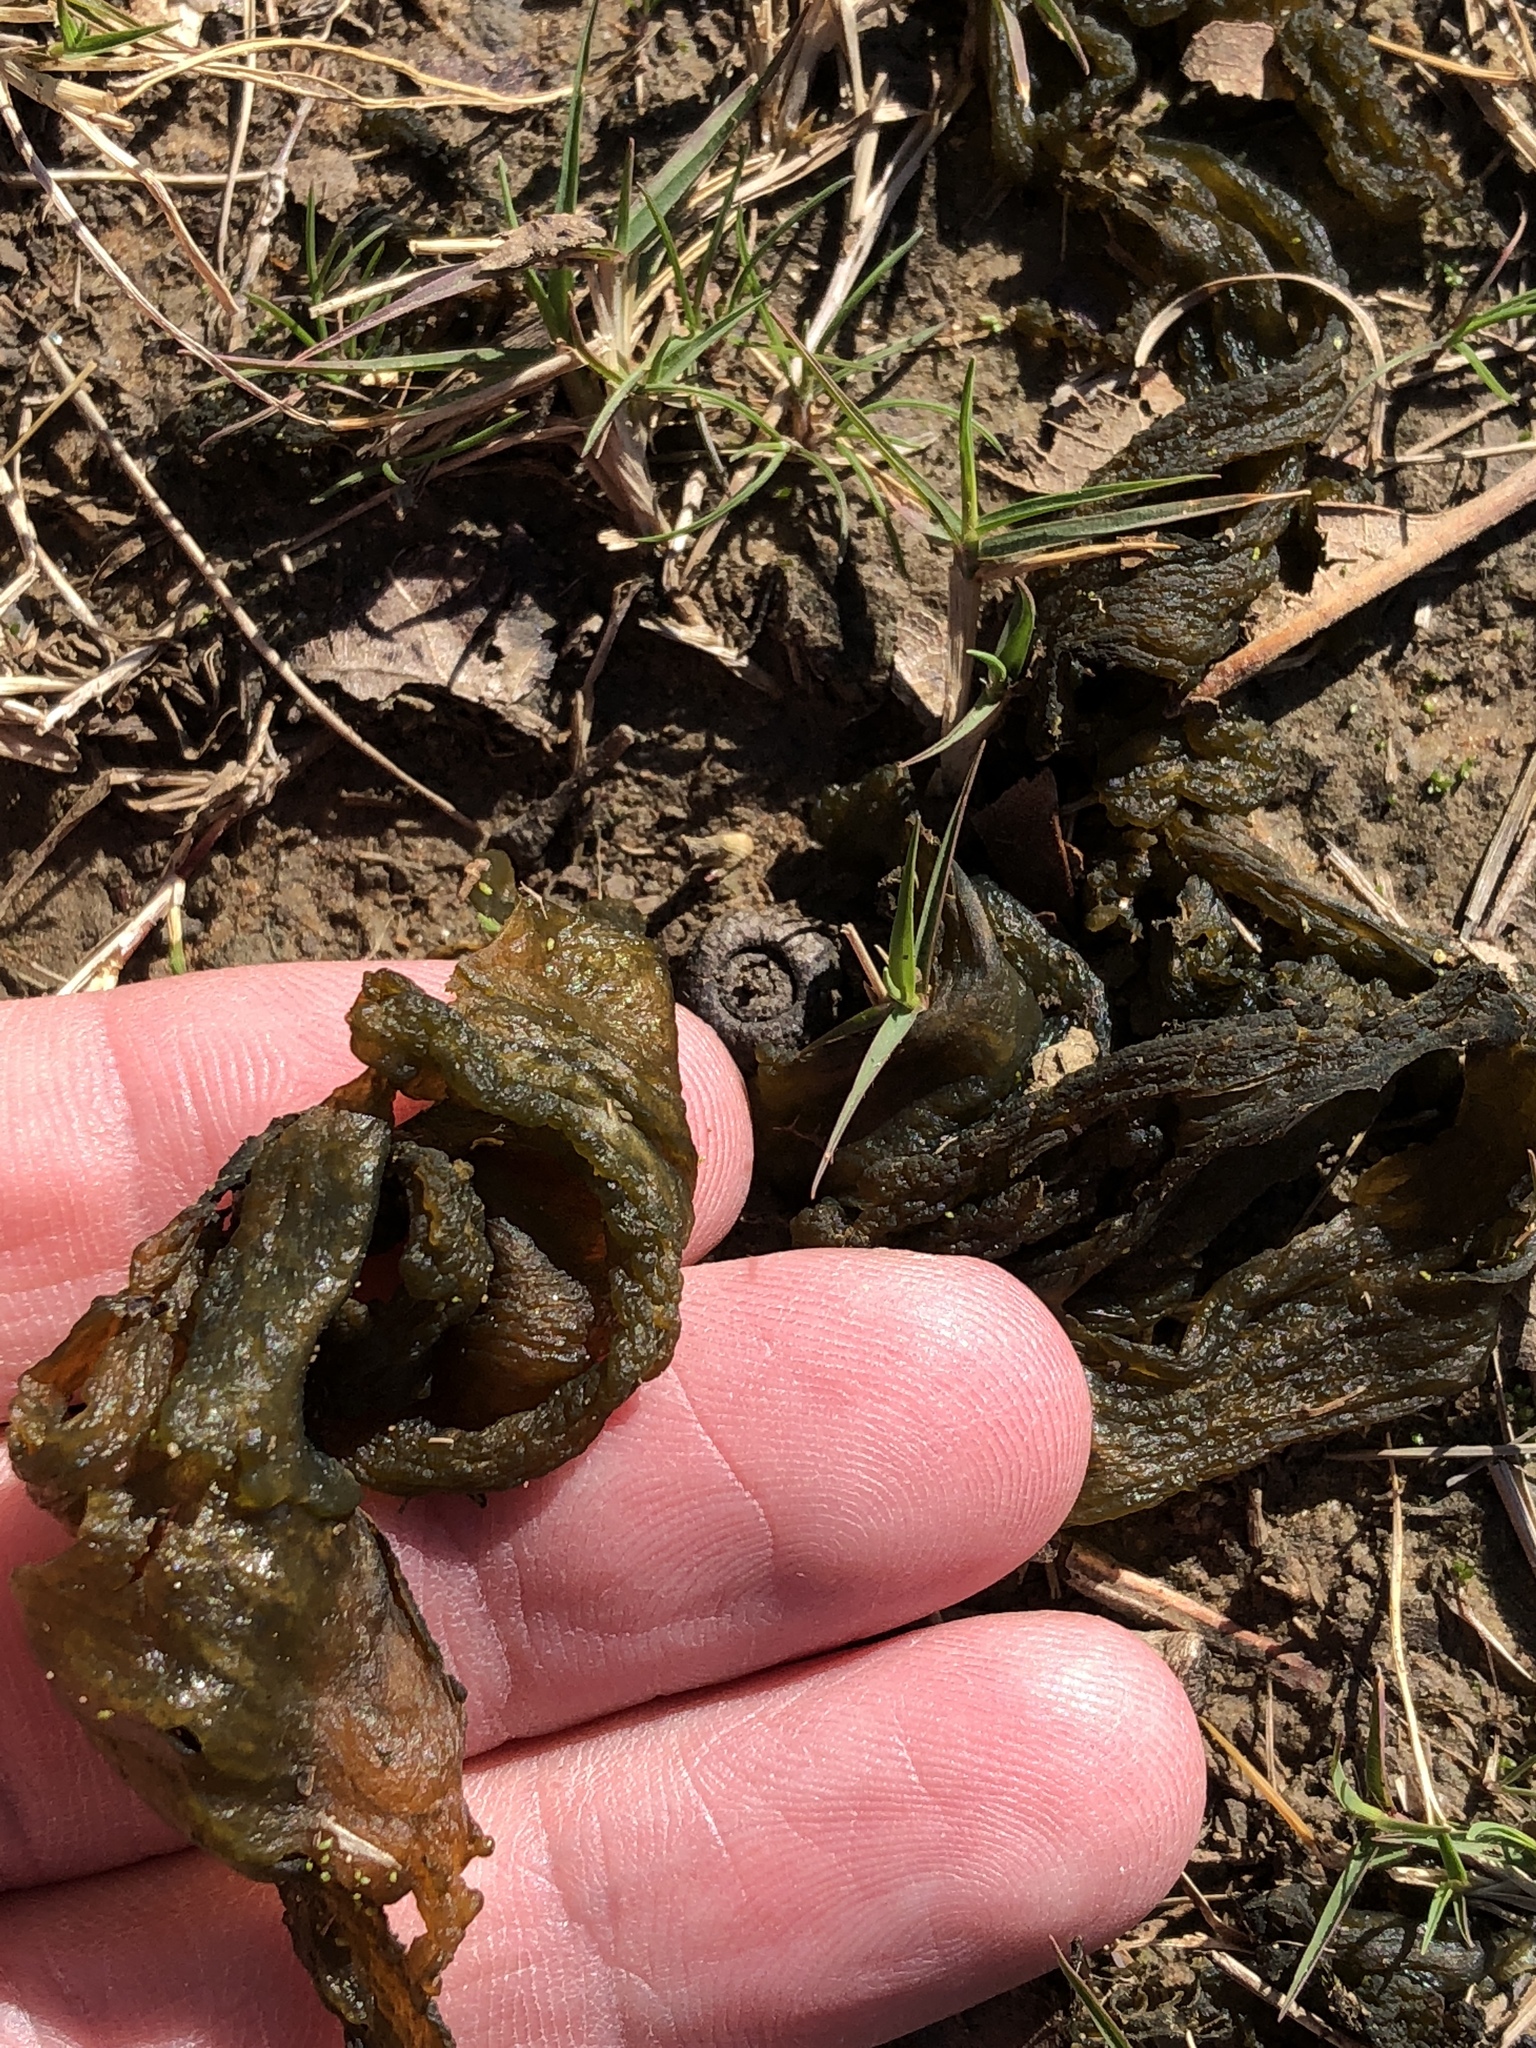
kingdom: Bacteria
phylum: Cyanobacteria
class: Cyanobacteriia
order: Cyanobacteriales
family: Nostocaceae
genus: Nostoc
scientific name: Nostoc commune
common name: Star jelly
